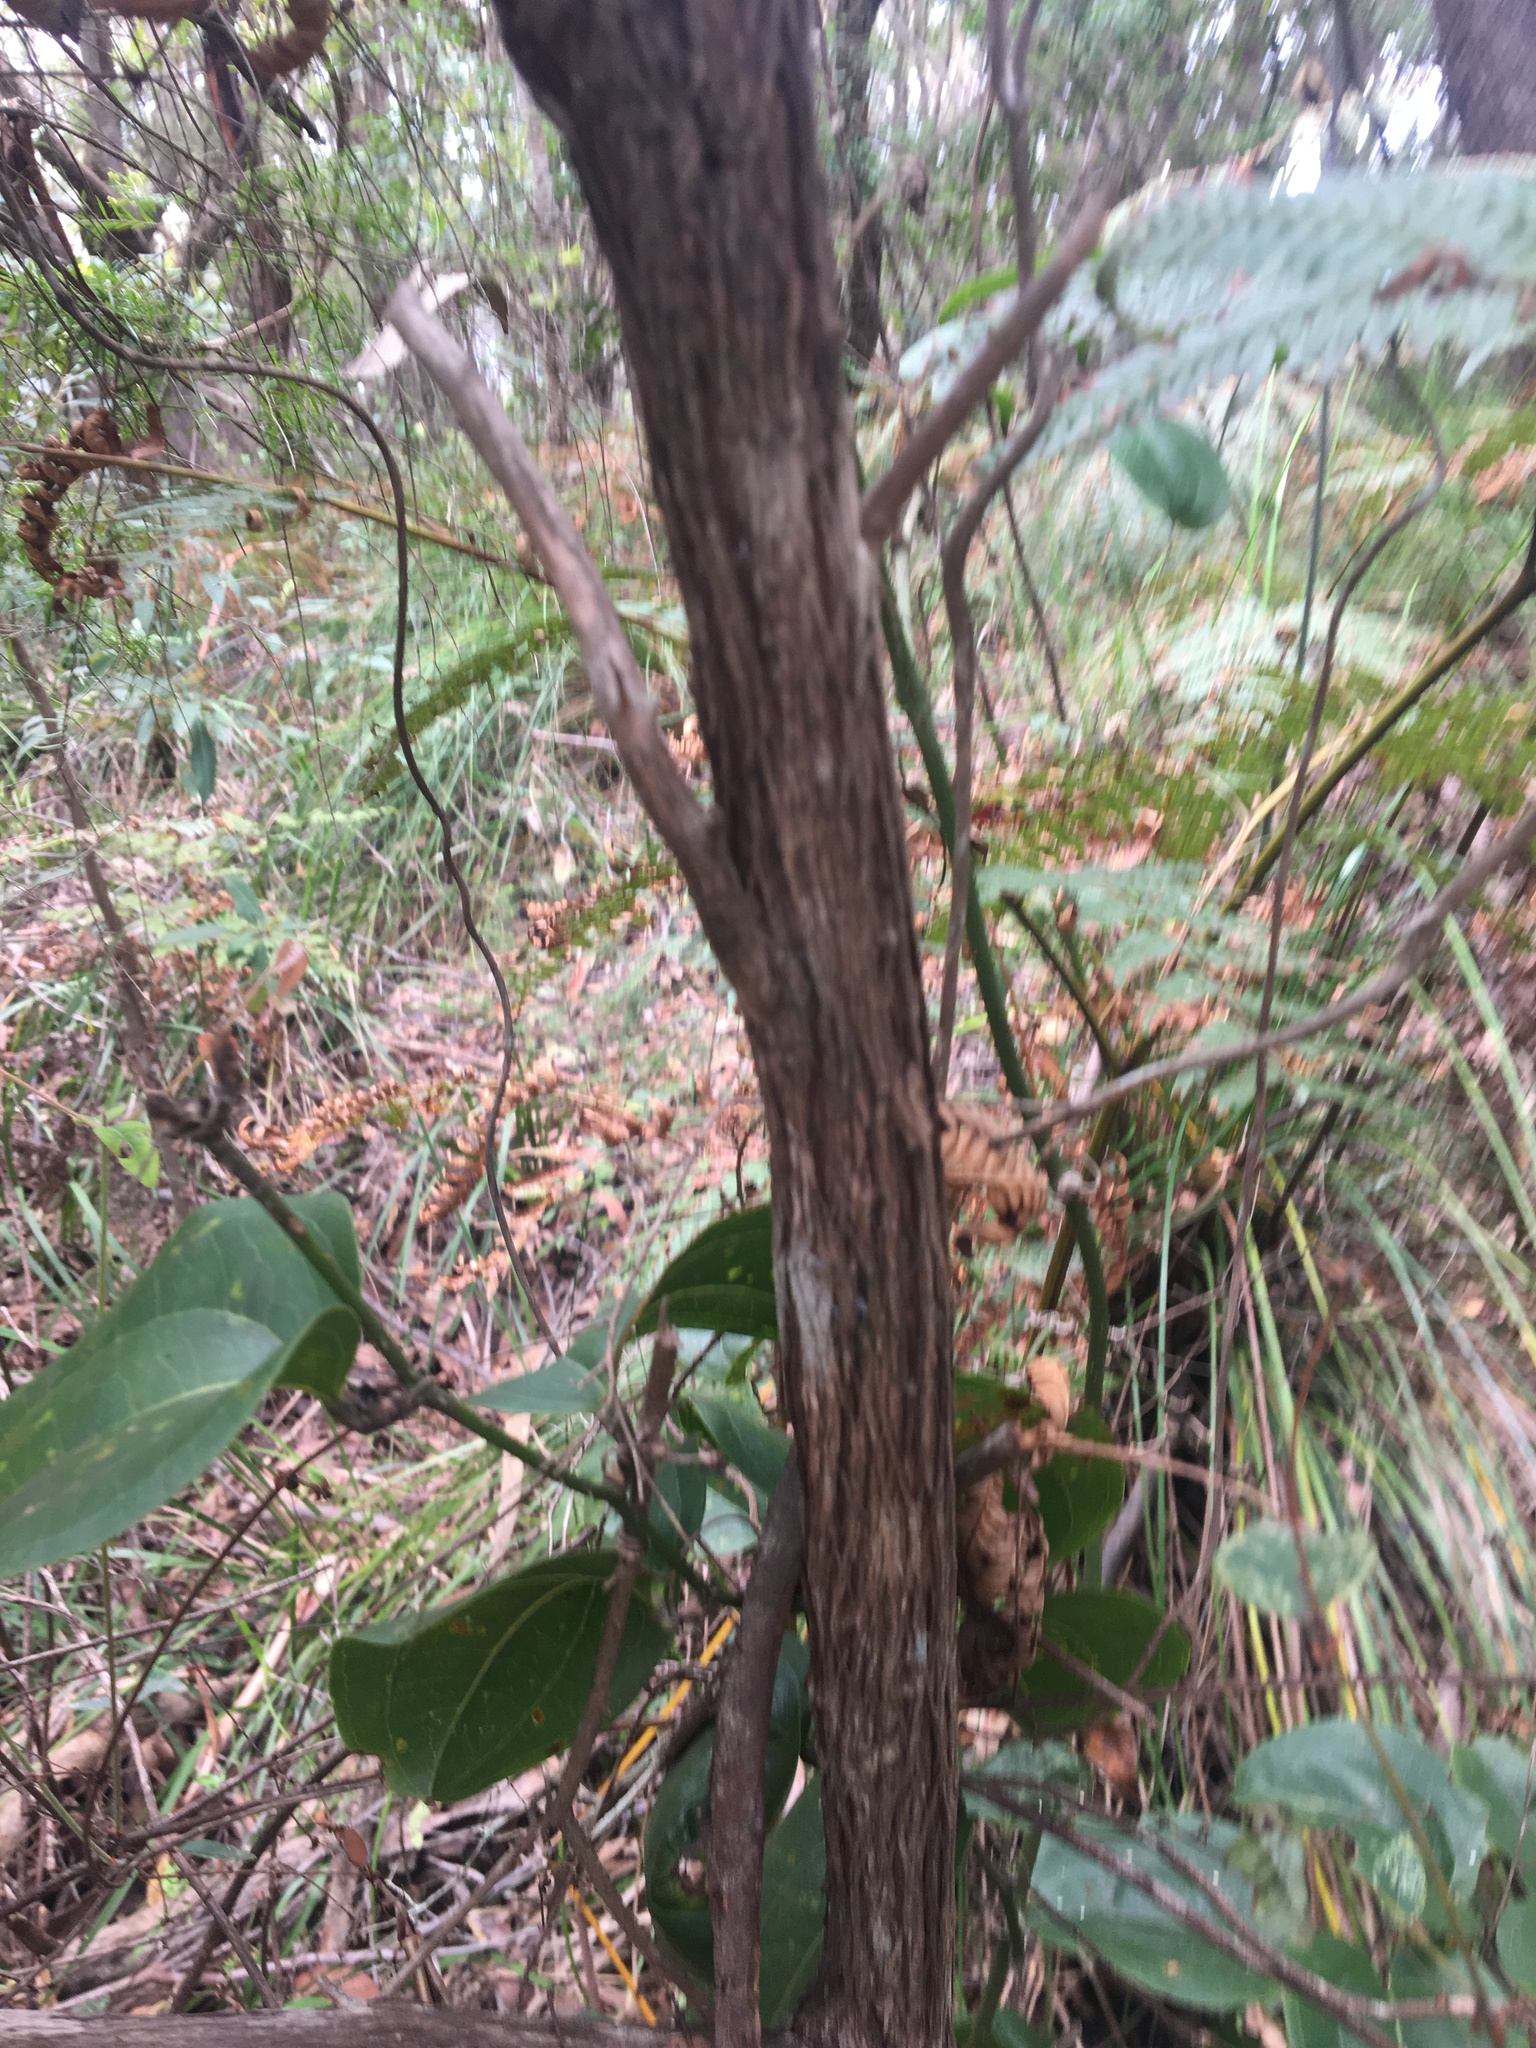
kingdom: Plantae
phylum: Tracheophyta
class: Magnoliopsida
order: Myrtales
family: Myrtaceae
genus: Sannantha
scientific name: Sannantha pluriflora
